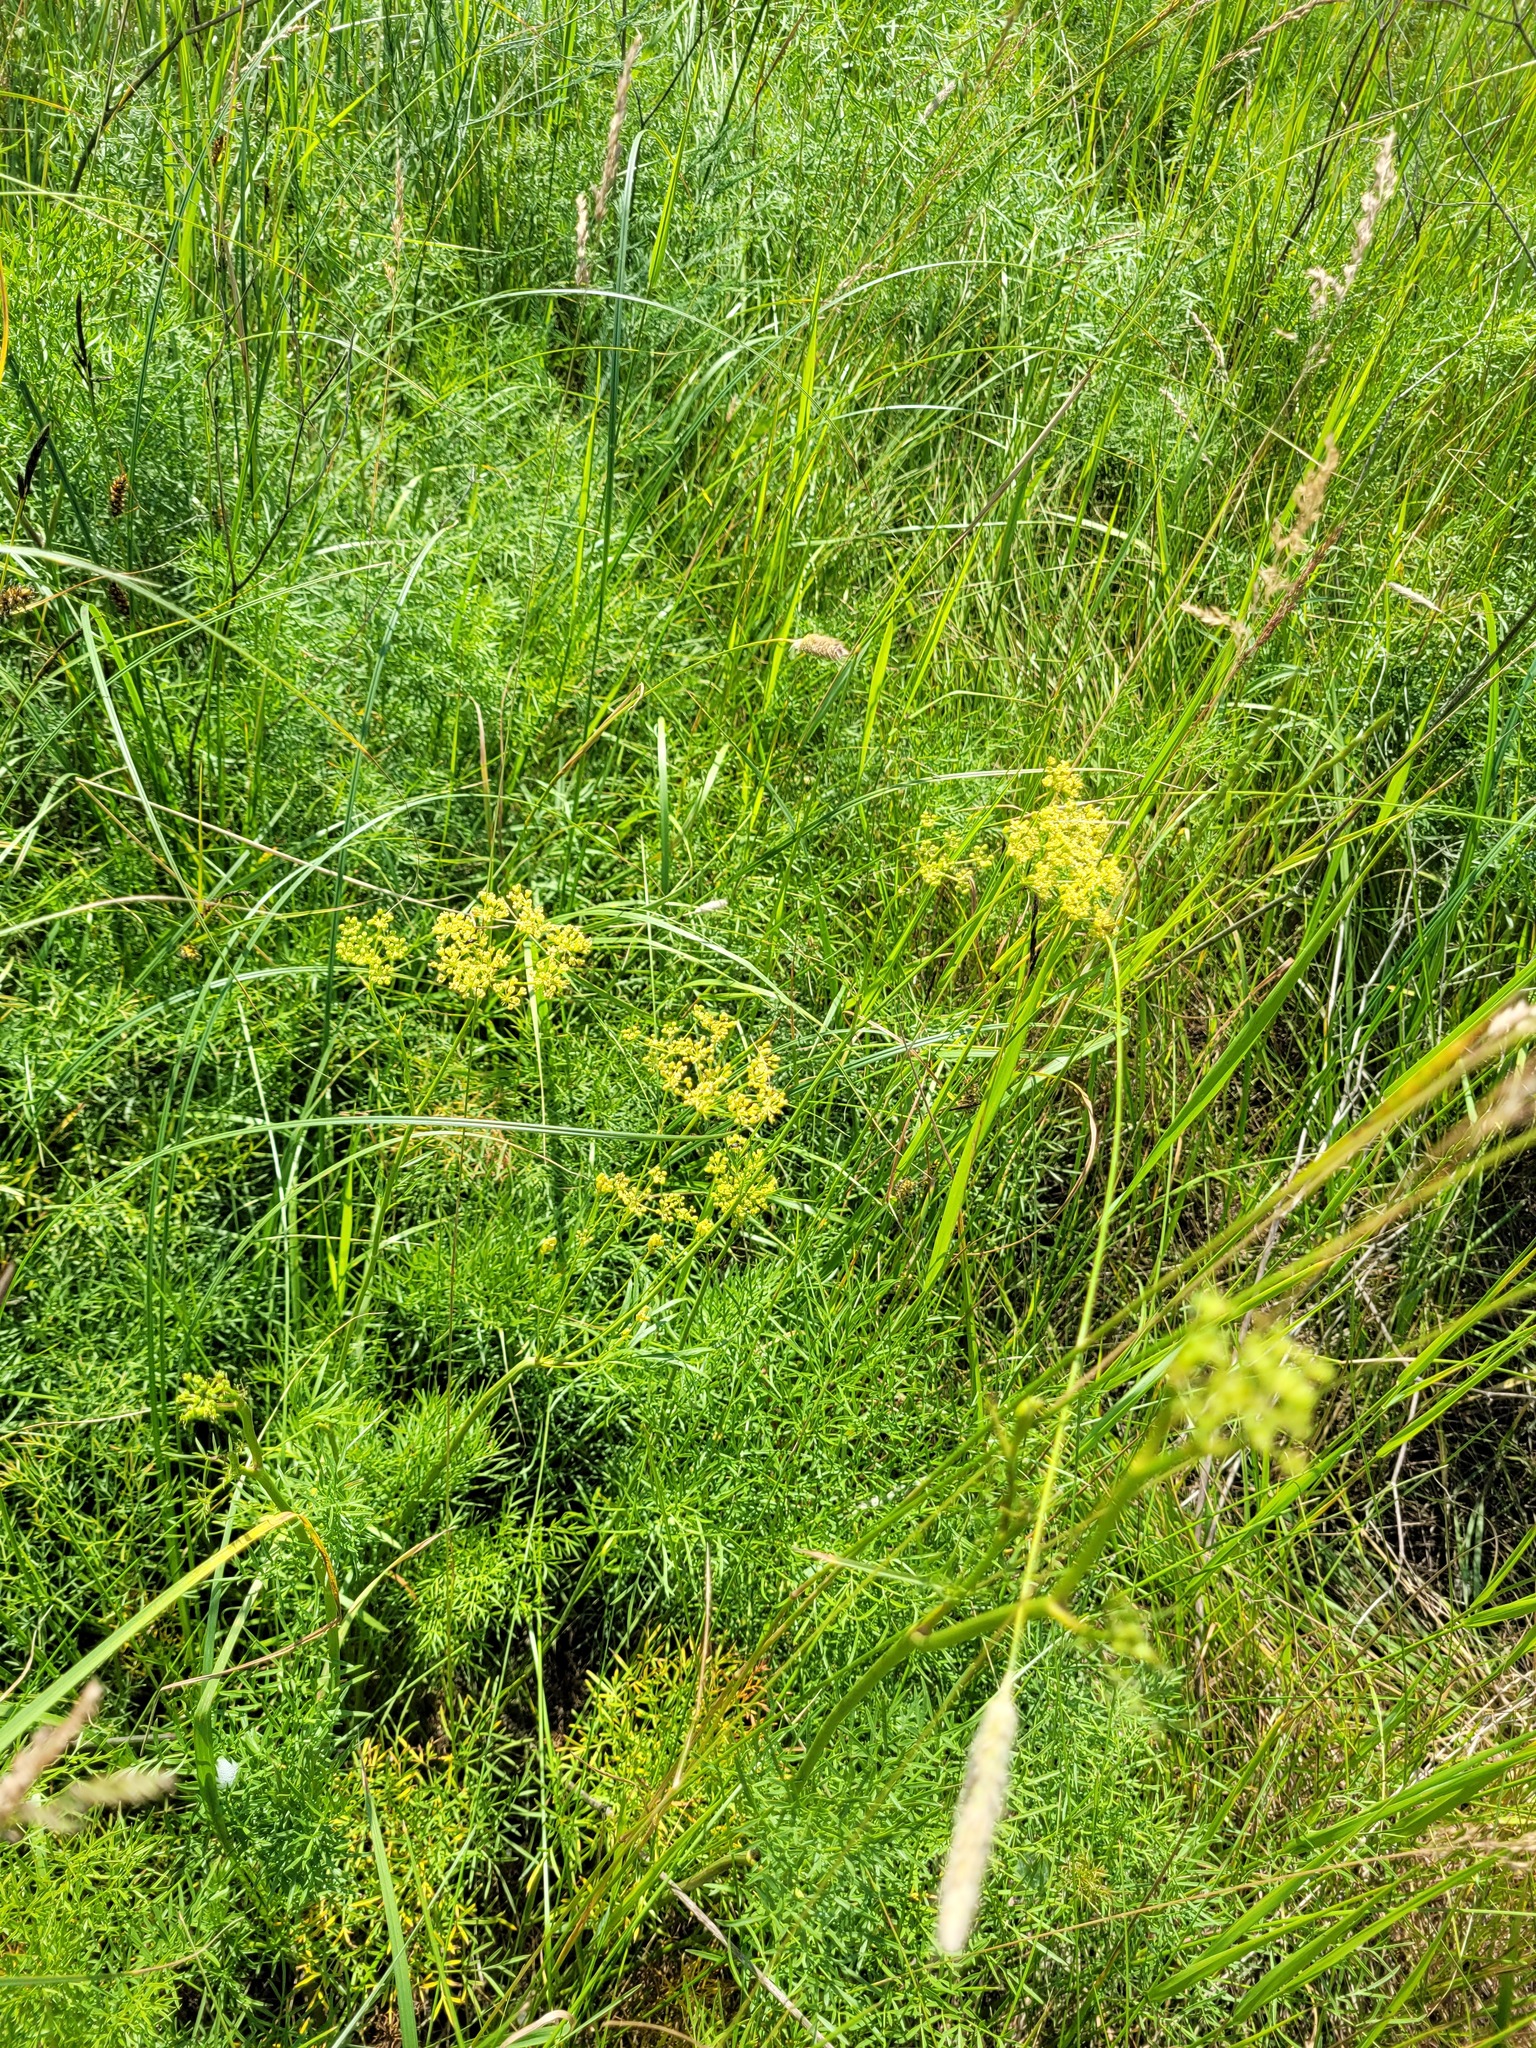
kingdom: Plantae
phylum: Tracheophyta
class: Magnoliopsida
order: Apiales
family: Apiaceae
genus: Silaum
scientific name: Silaum silaus
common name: Pepper-saxifrage
